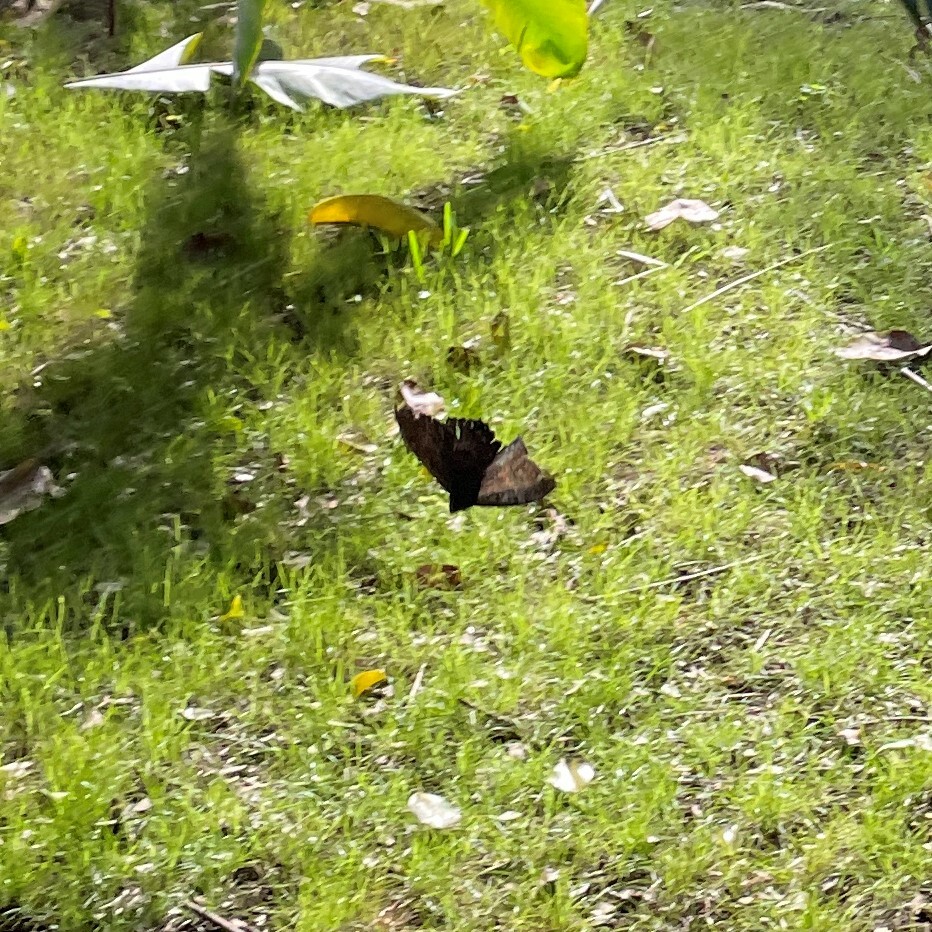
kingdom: Animalia
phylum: Arthropoda
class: Insecta
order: Lepidoptera
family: Erebidae
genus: Ascalapha
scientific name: Ascalapha odorata
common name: Black witch
